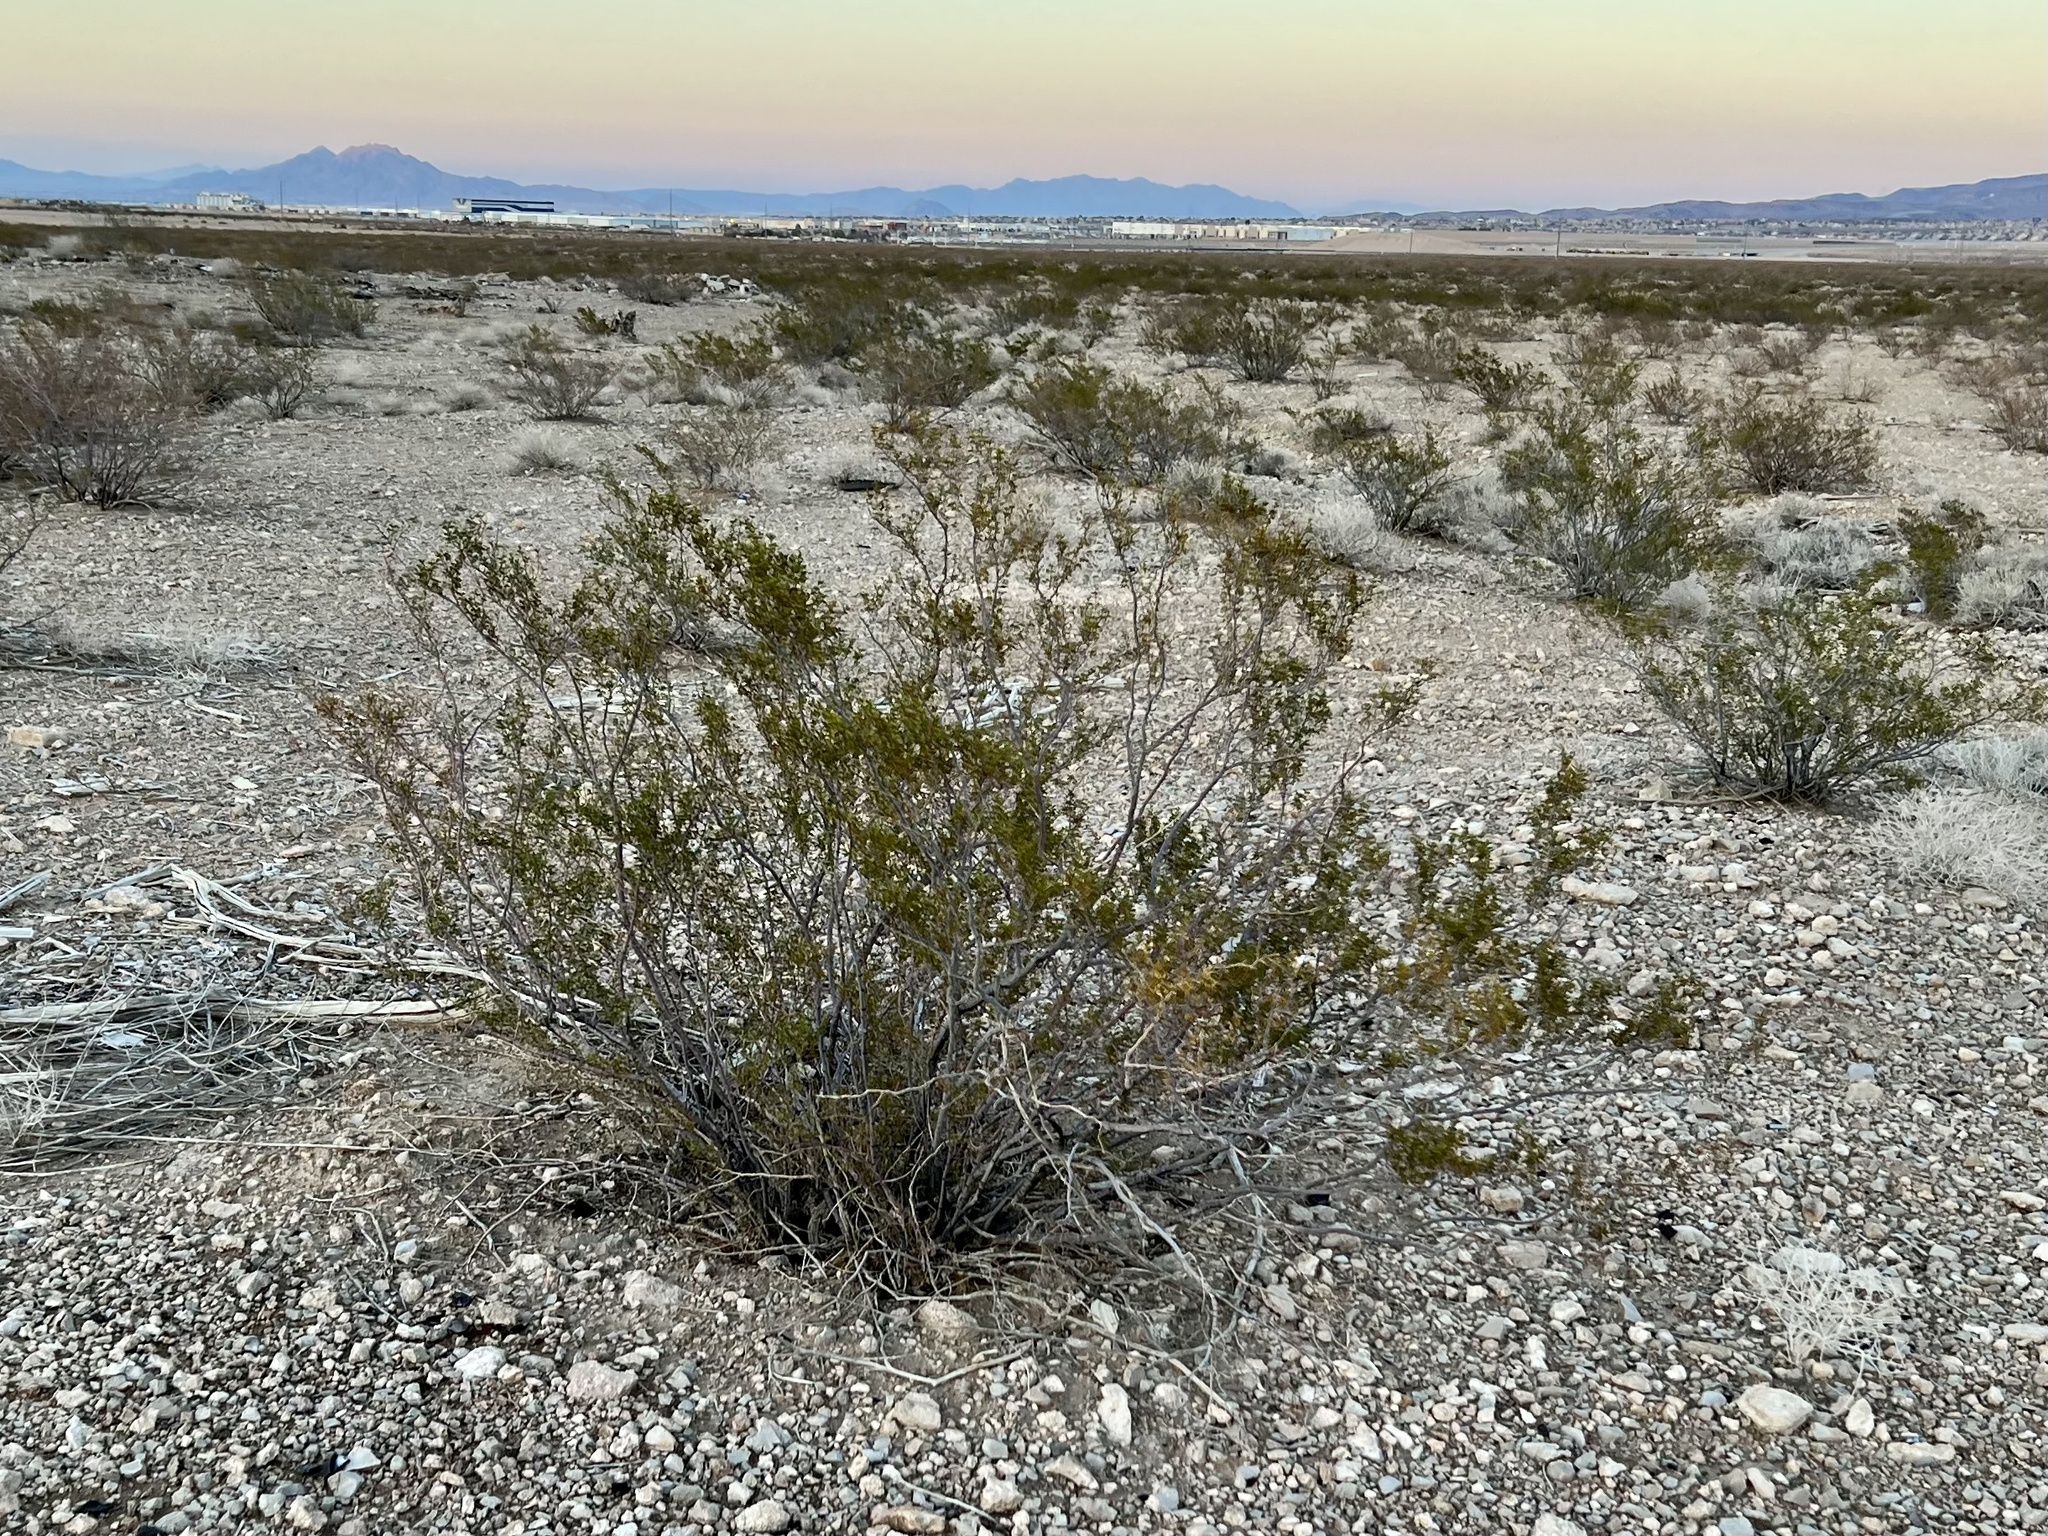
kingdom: Plantae
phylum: Tracheophyta
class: Magnoliopsida
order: Zygophyllales
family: Zygophyllaceae
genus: Larrea
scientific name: Larrea tridentata
